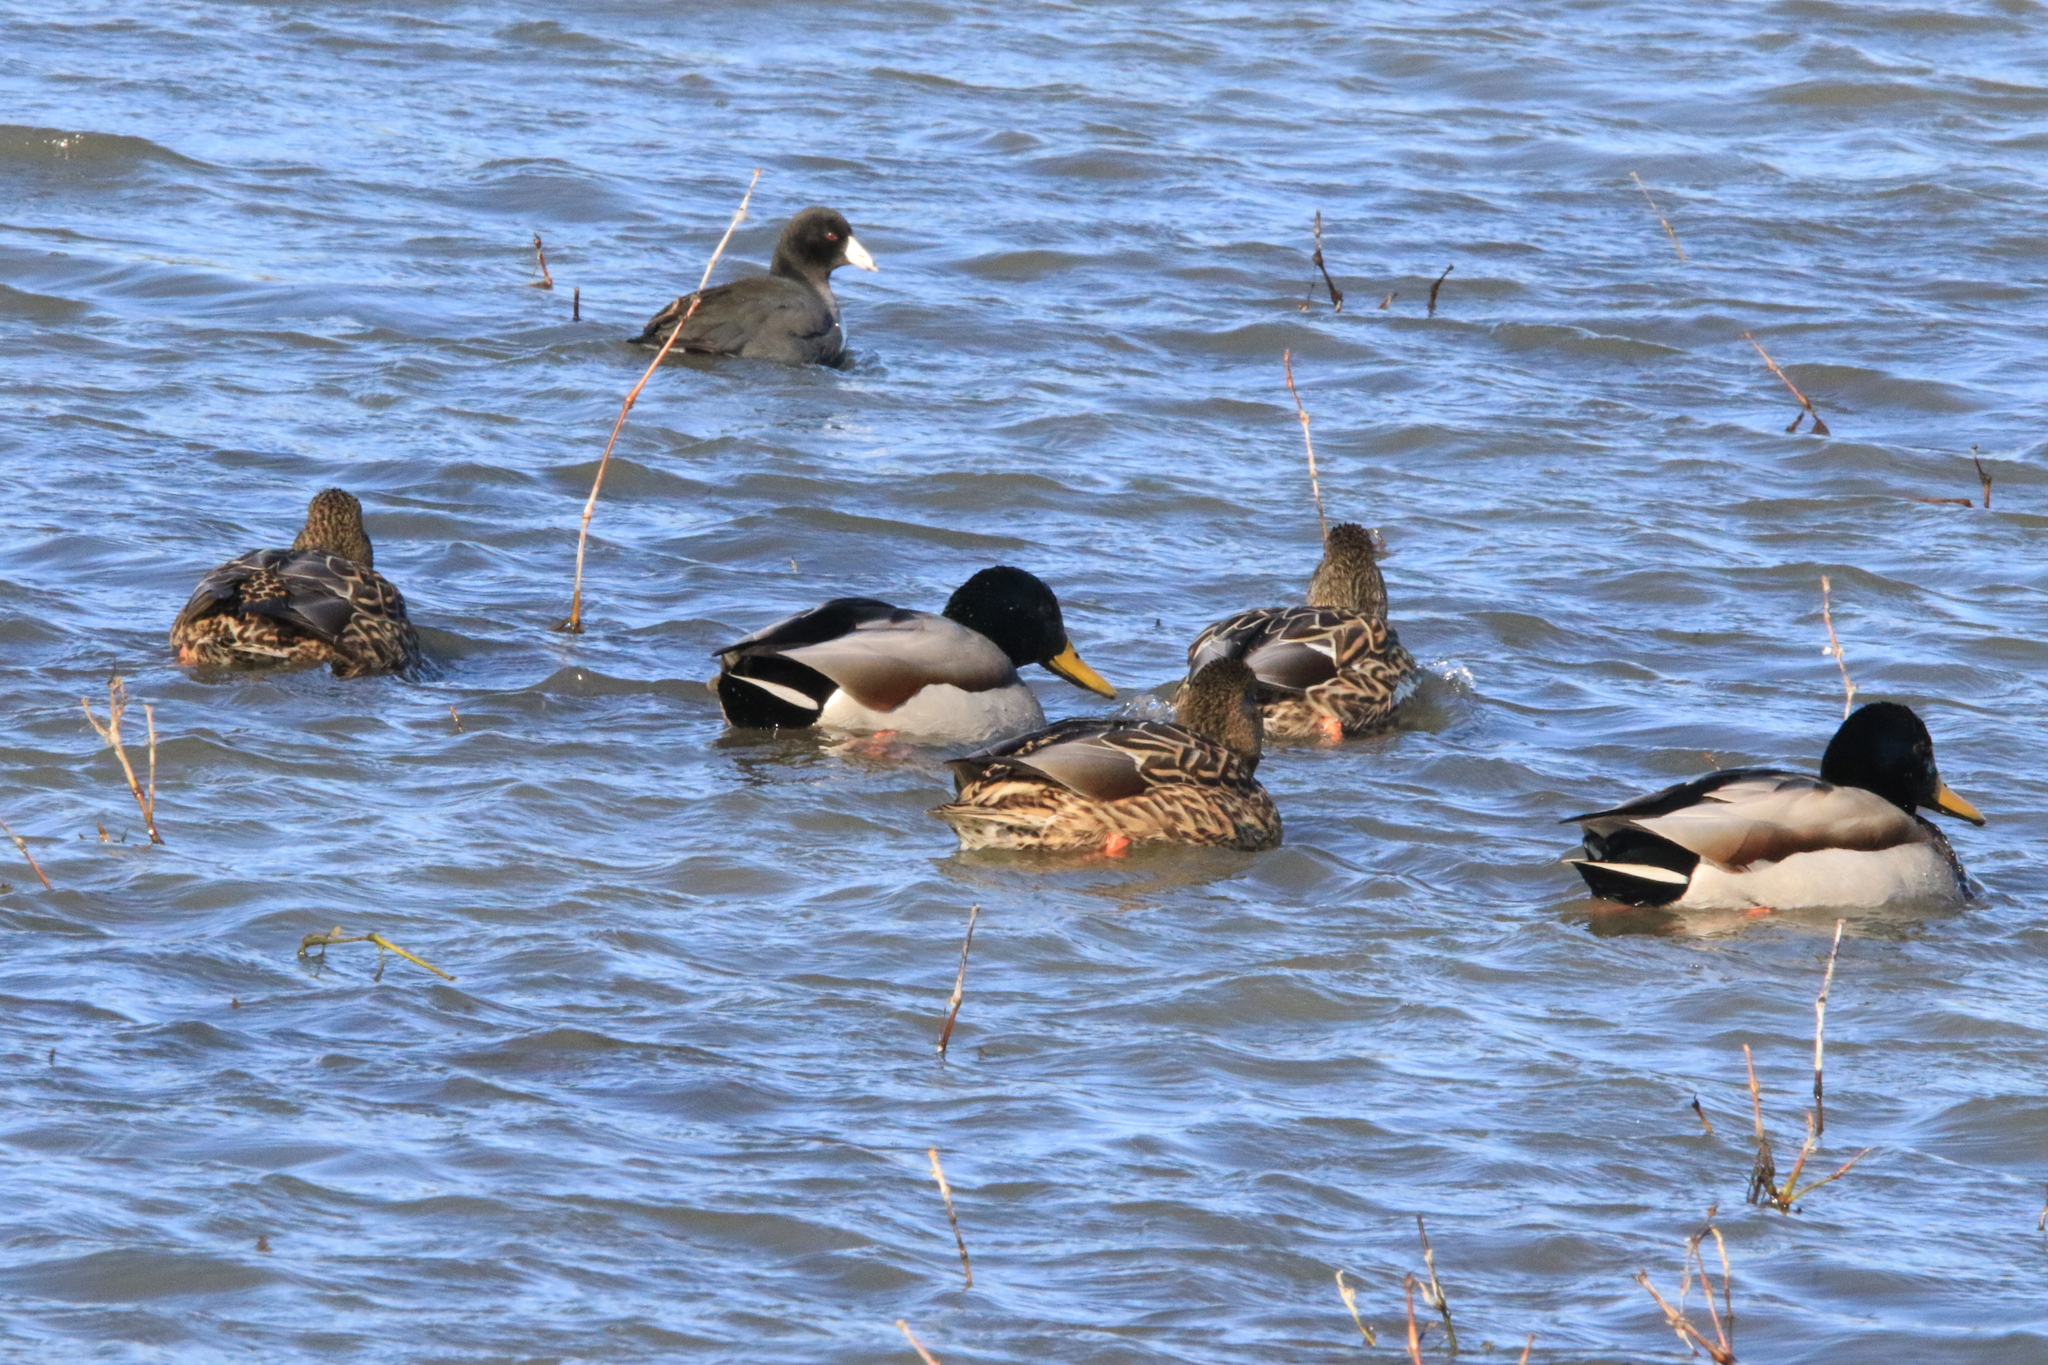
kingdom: Animalia
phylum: Chordata
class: Aves
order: Anseriformes
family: Anatidae
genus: Anas
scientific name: Anas platyrhynchos
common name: Mallard
